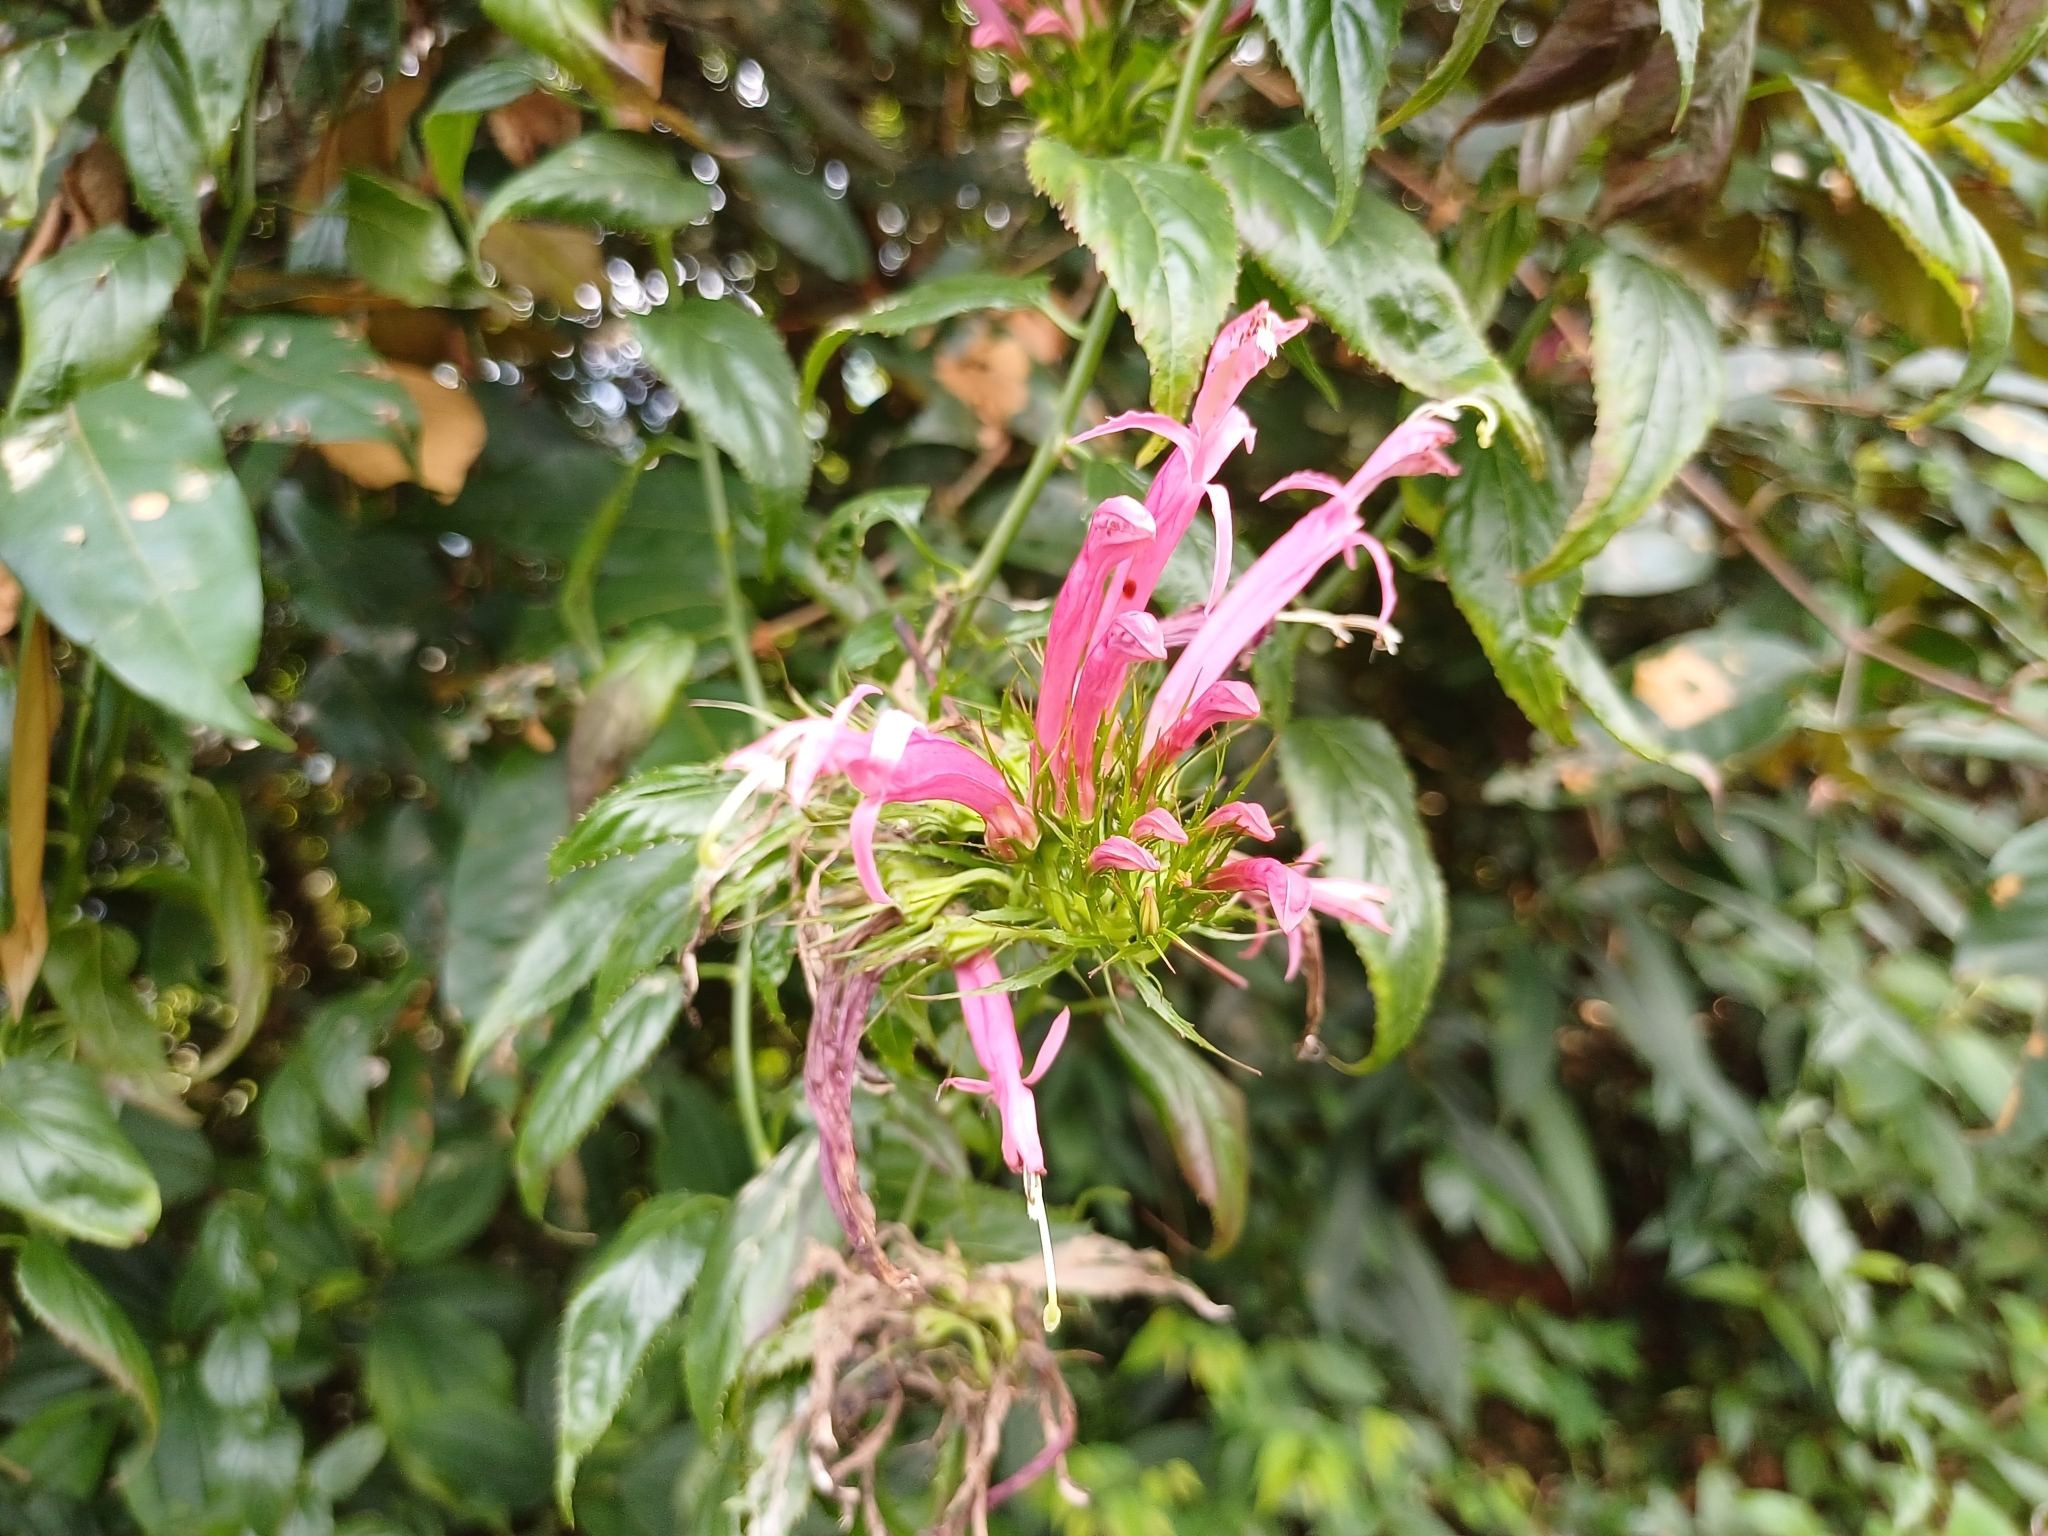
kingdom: Plantae
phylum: Tracheophyta
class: Magnoliopsida
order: Asterales
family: Campanulaceae
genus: Siphocampylus
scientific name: Siphocampylus longibracteolatus
